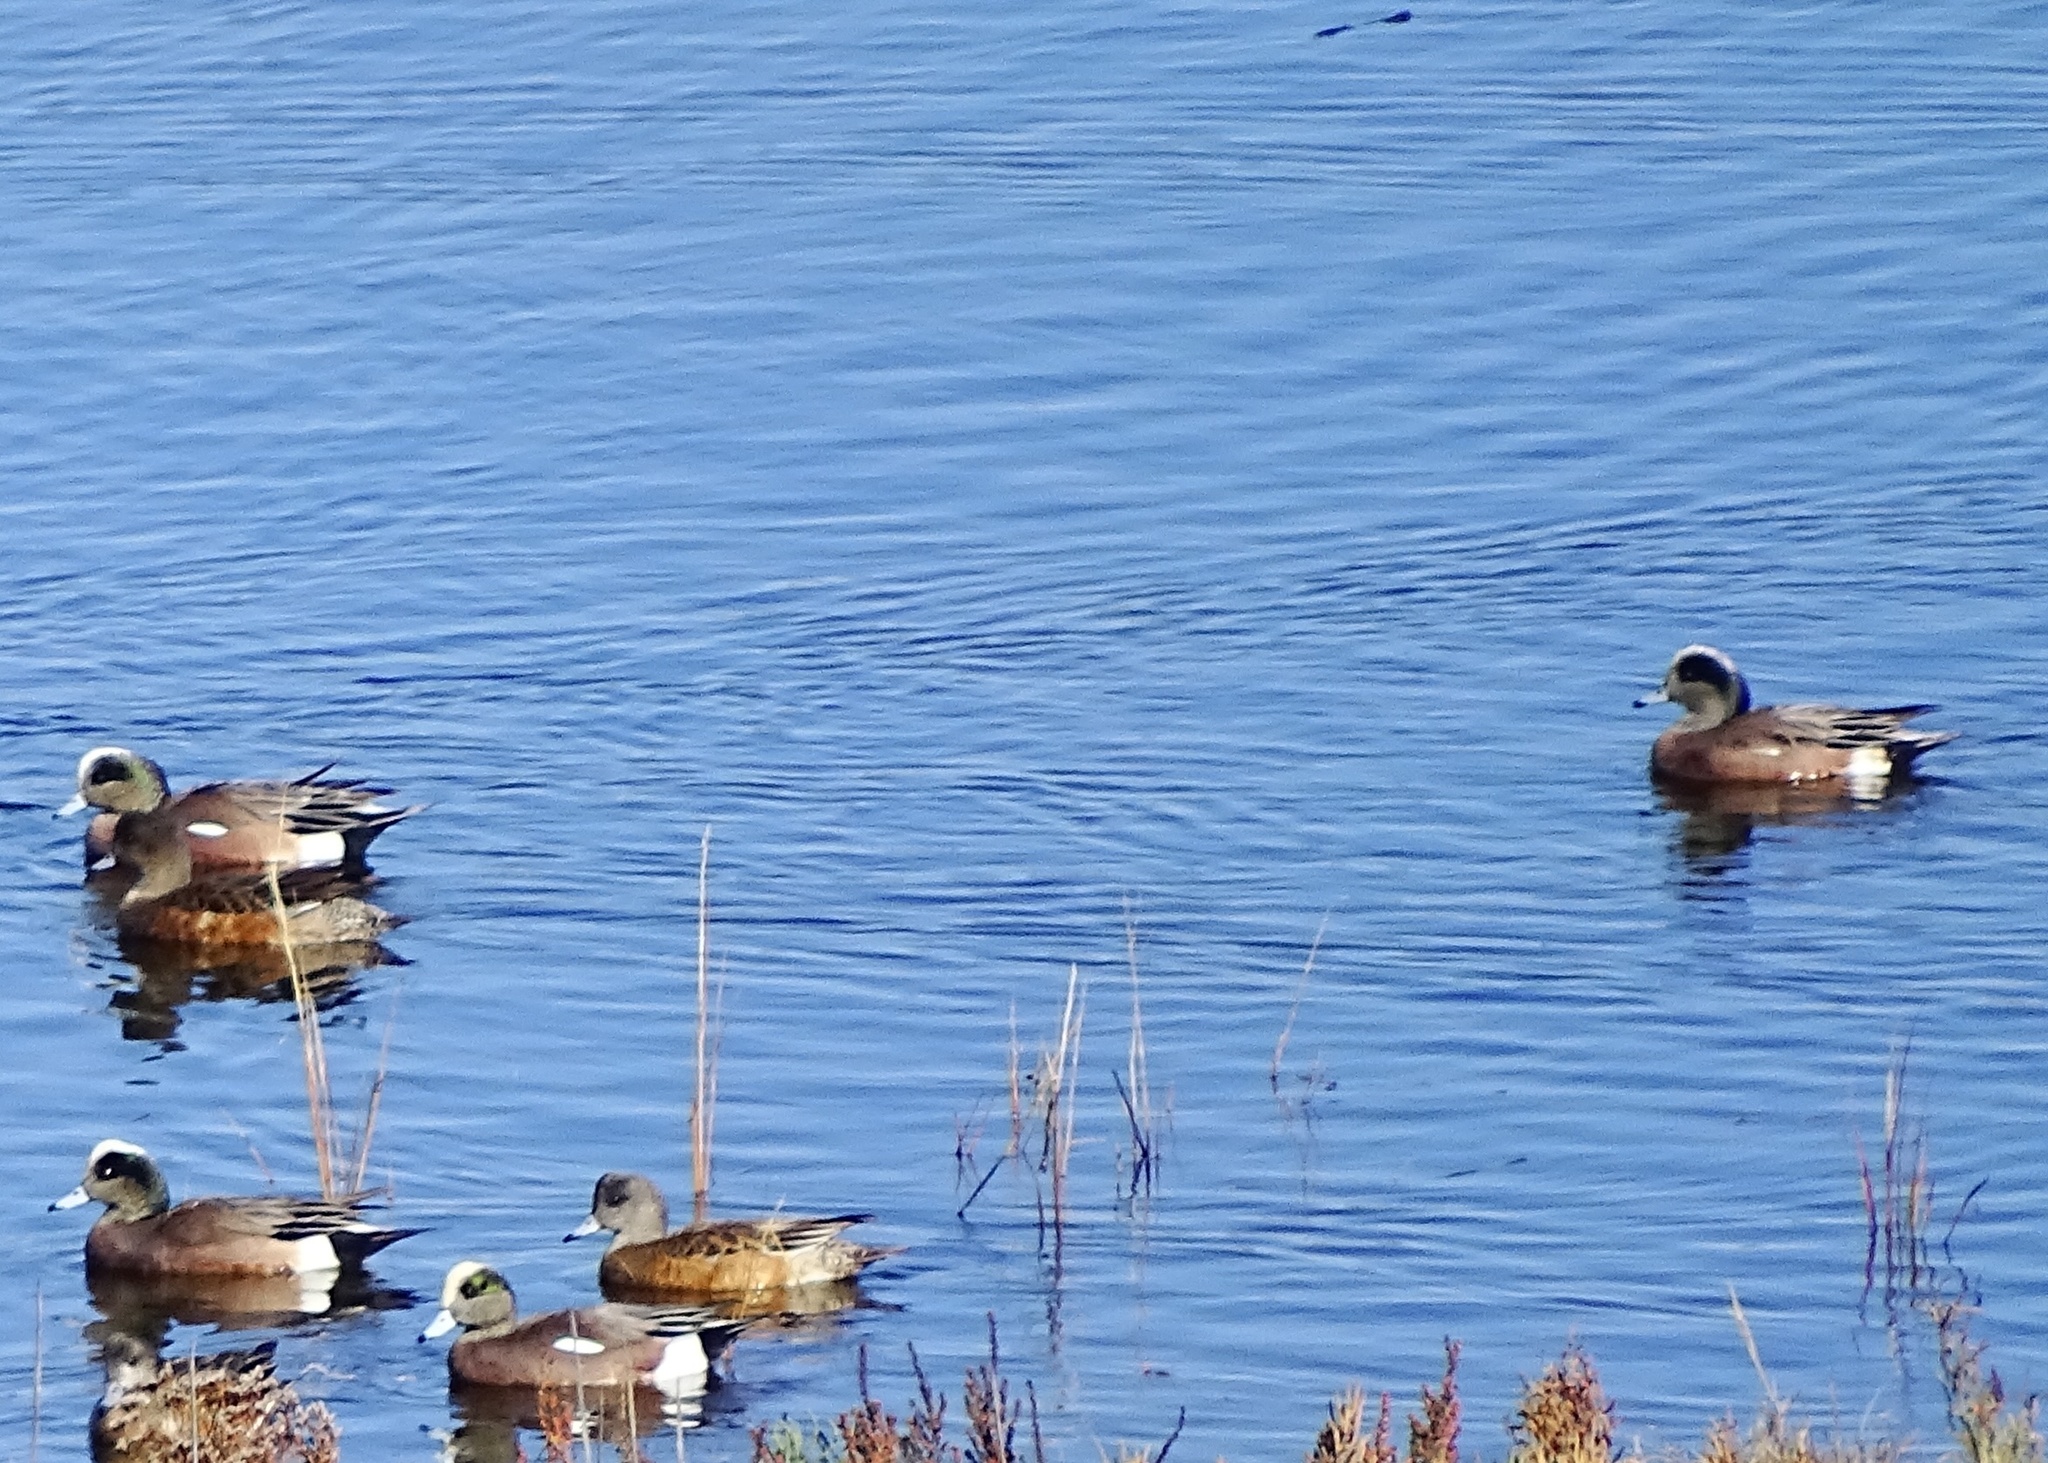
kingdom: Animalia
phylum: Chordata
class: Aves
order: Anseriformes
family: Anatidae
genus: Mareca
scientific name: Mareca americana
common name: American wigeon
